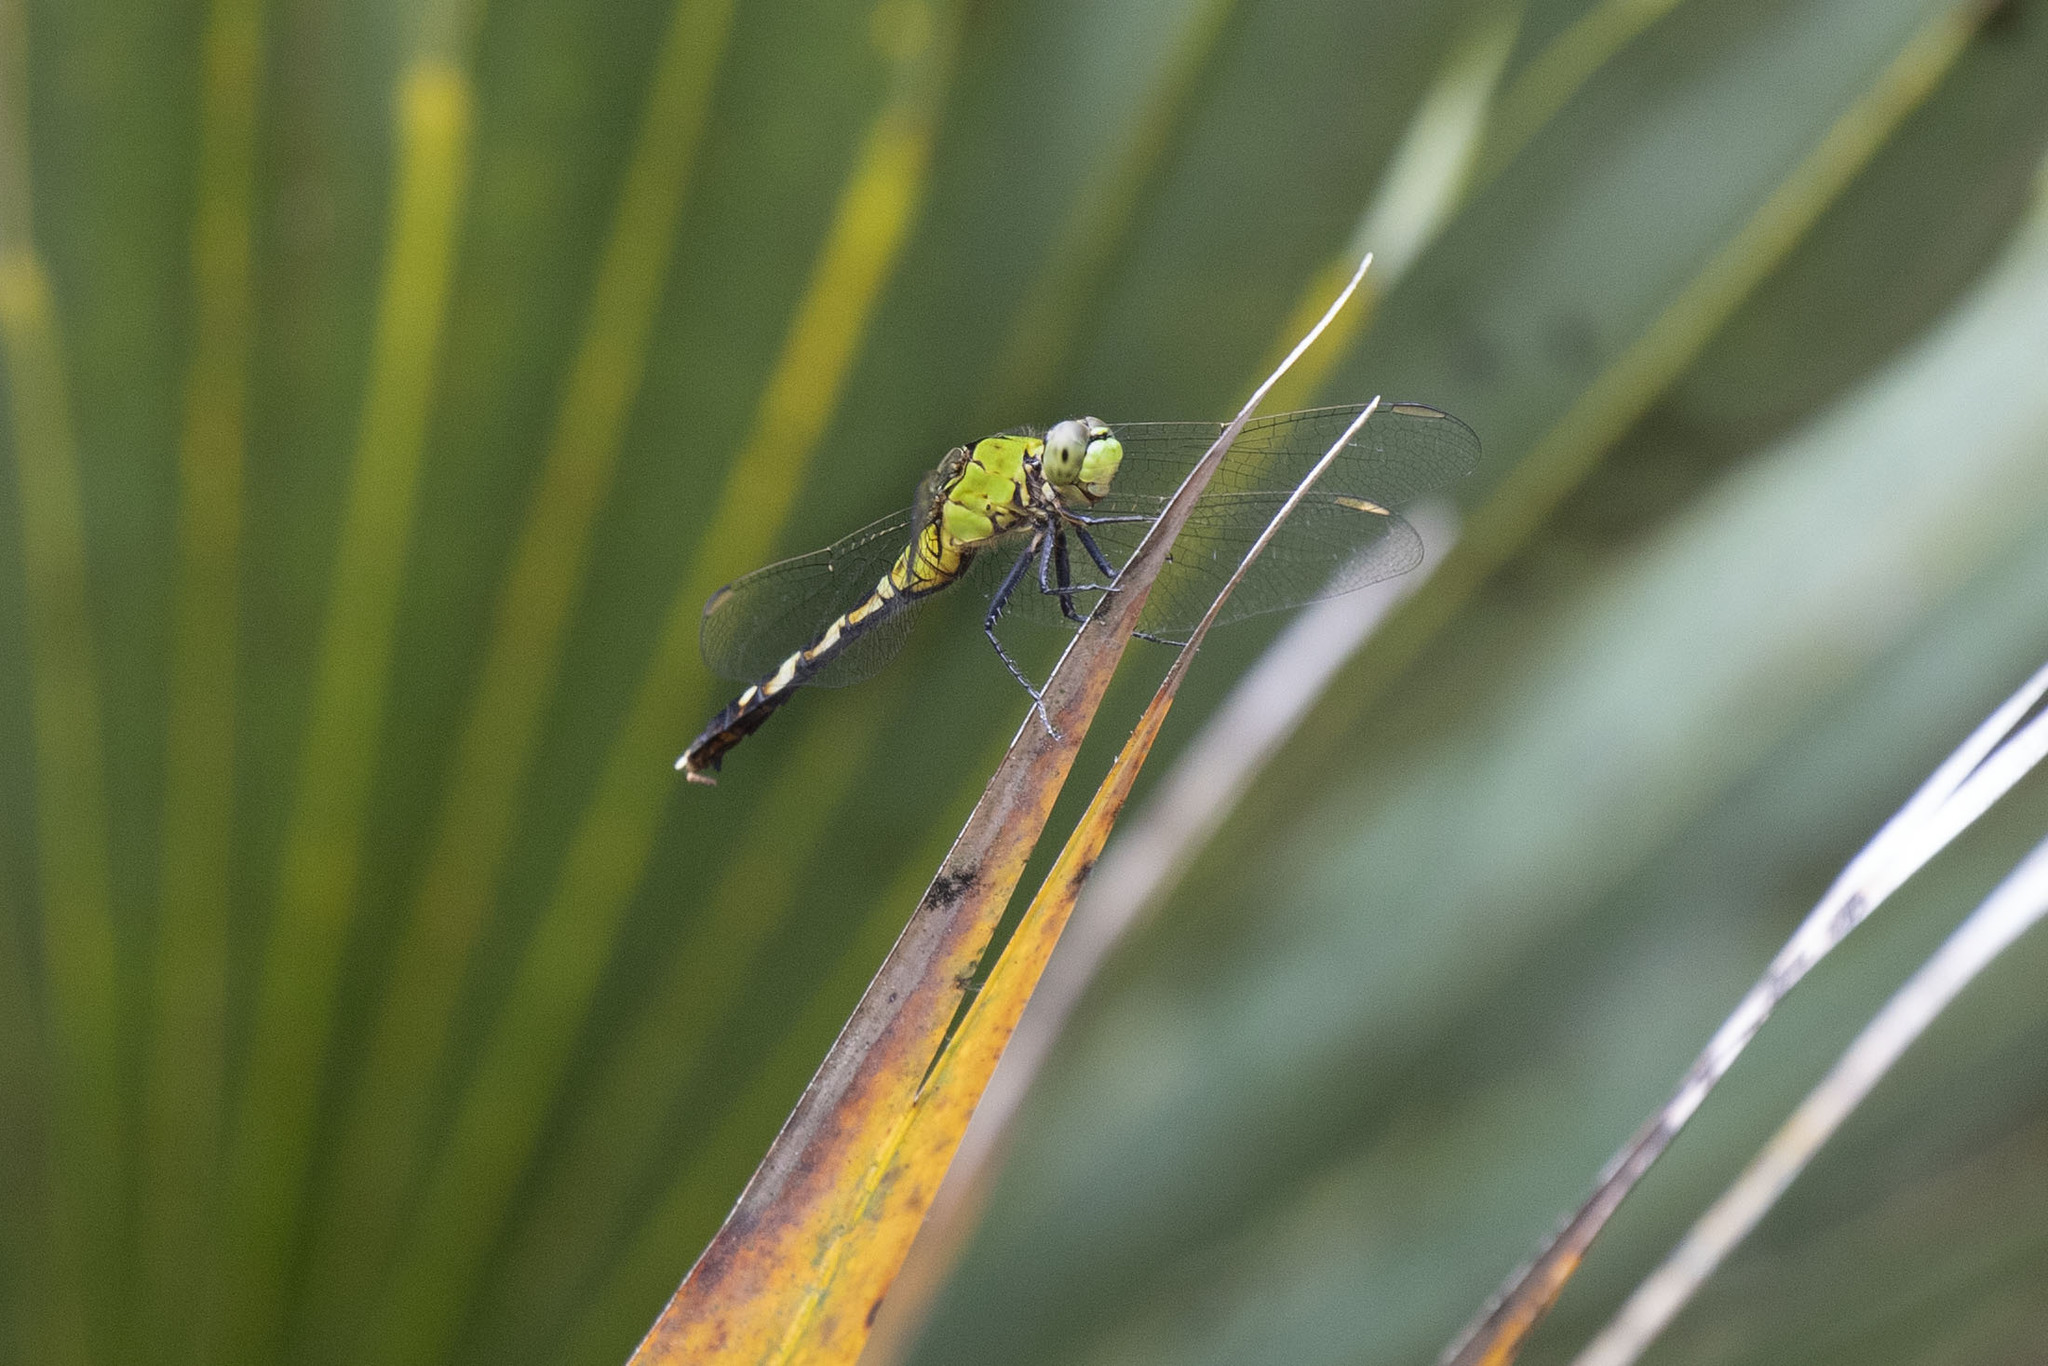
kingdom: Animalia
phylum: Arthropoda
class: Insecta
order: Odonata
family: Libellulidae
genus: Erythemis
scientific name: Erythemis simplicicollis
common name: Eastern pondhawk
